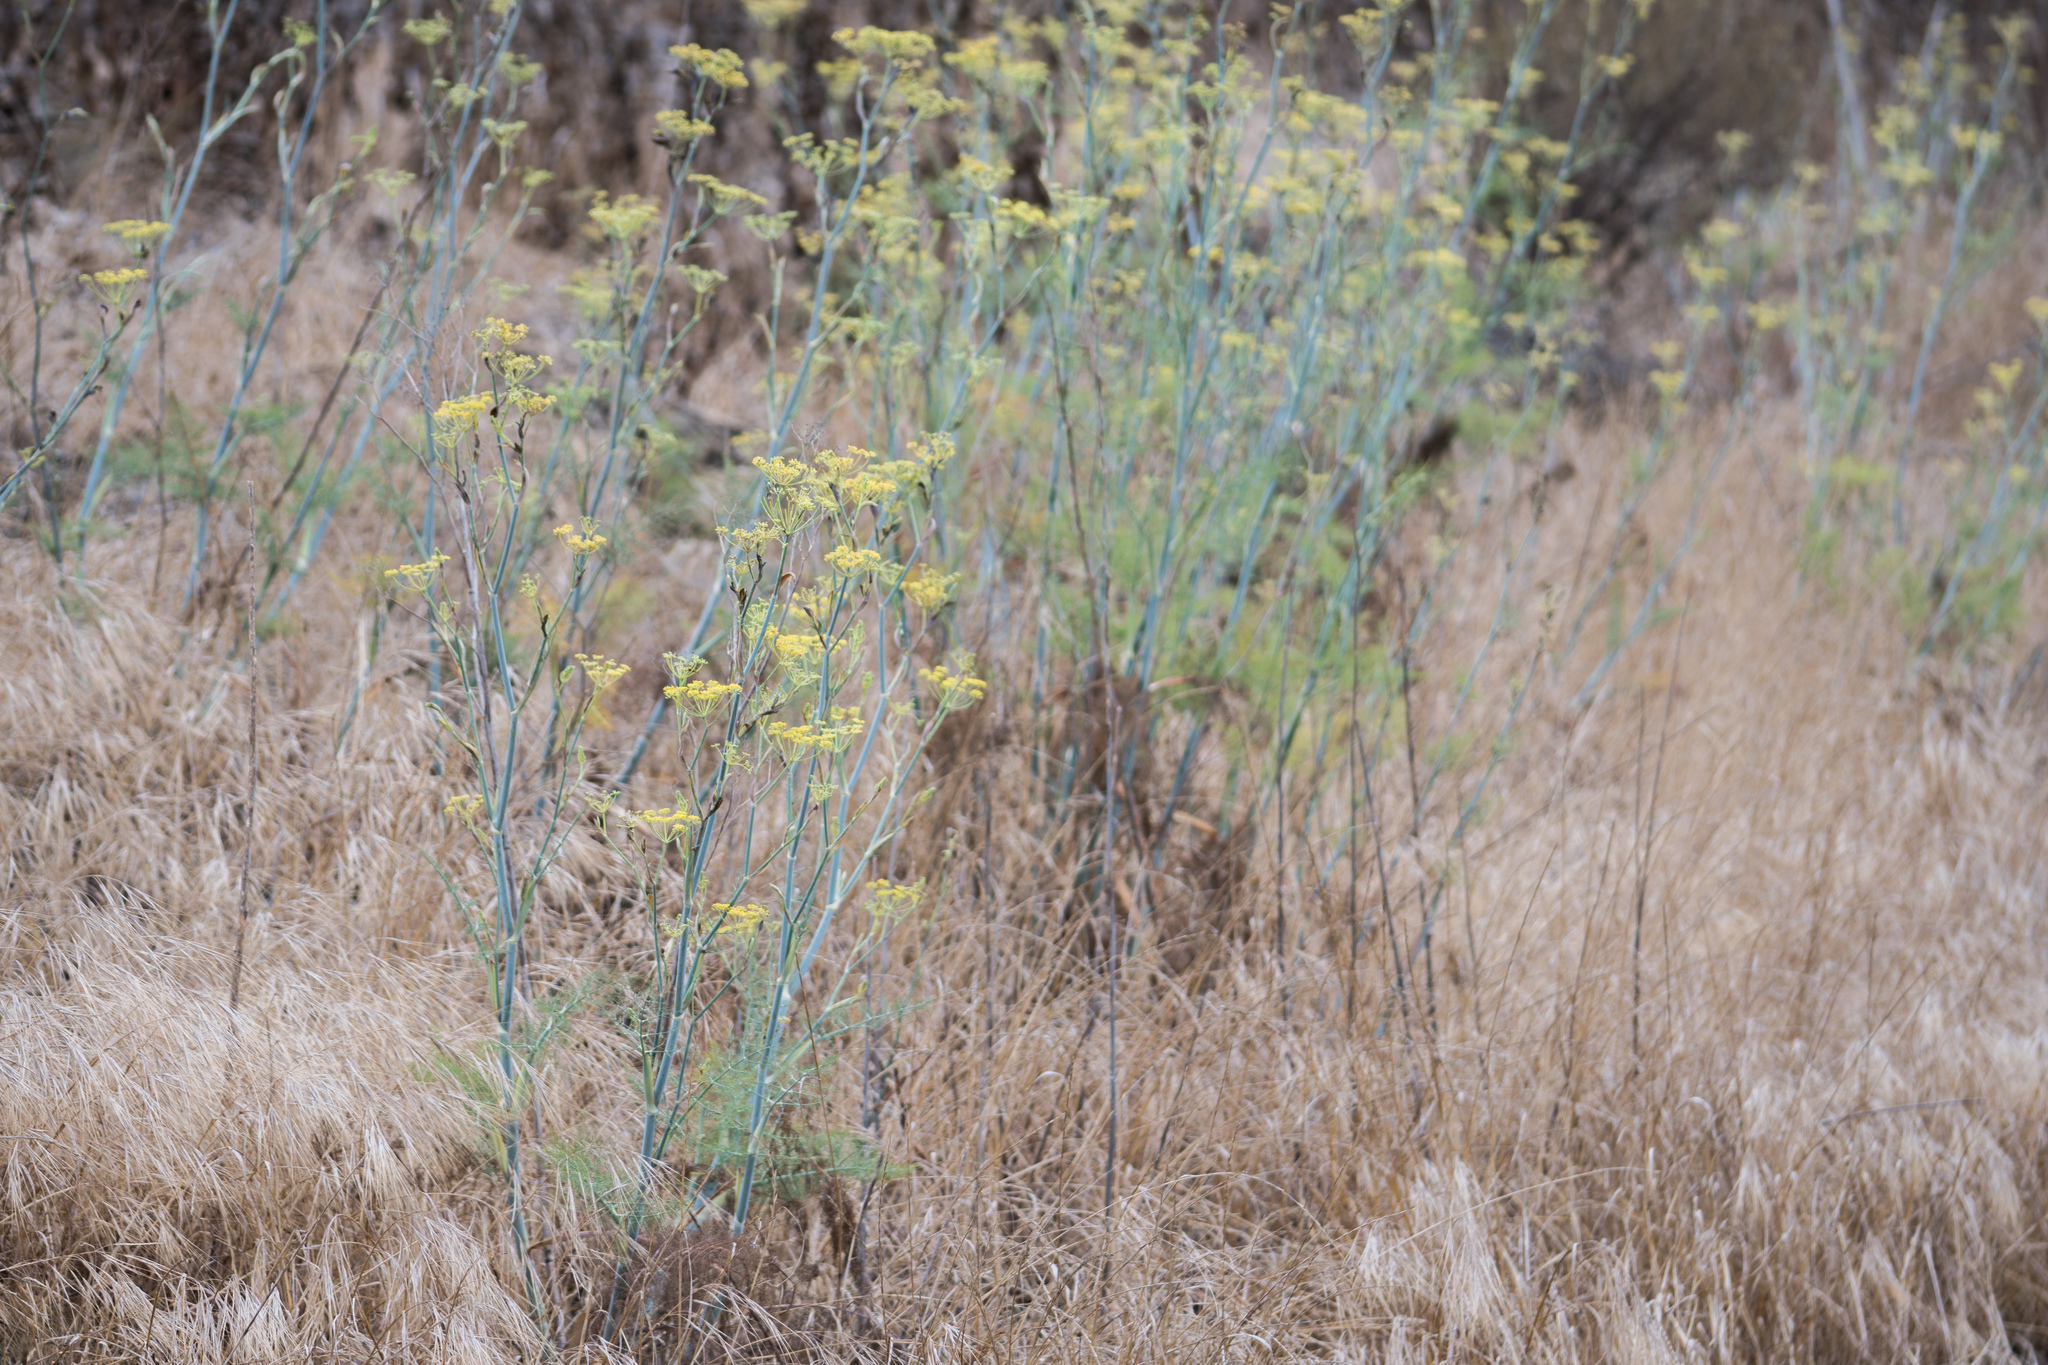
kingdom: Plantae
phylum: Tracheophyta
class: Magnoliopsida
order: Apiales
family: Apiaceae
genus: Foeniculum
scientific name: Foeniculum vulgare
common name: Fennel
